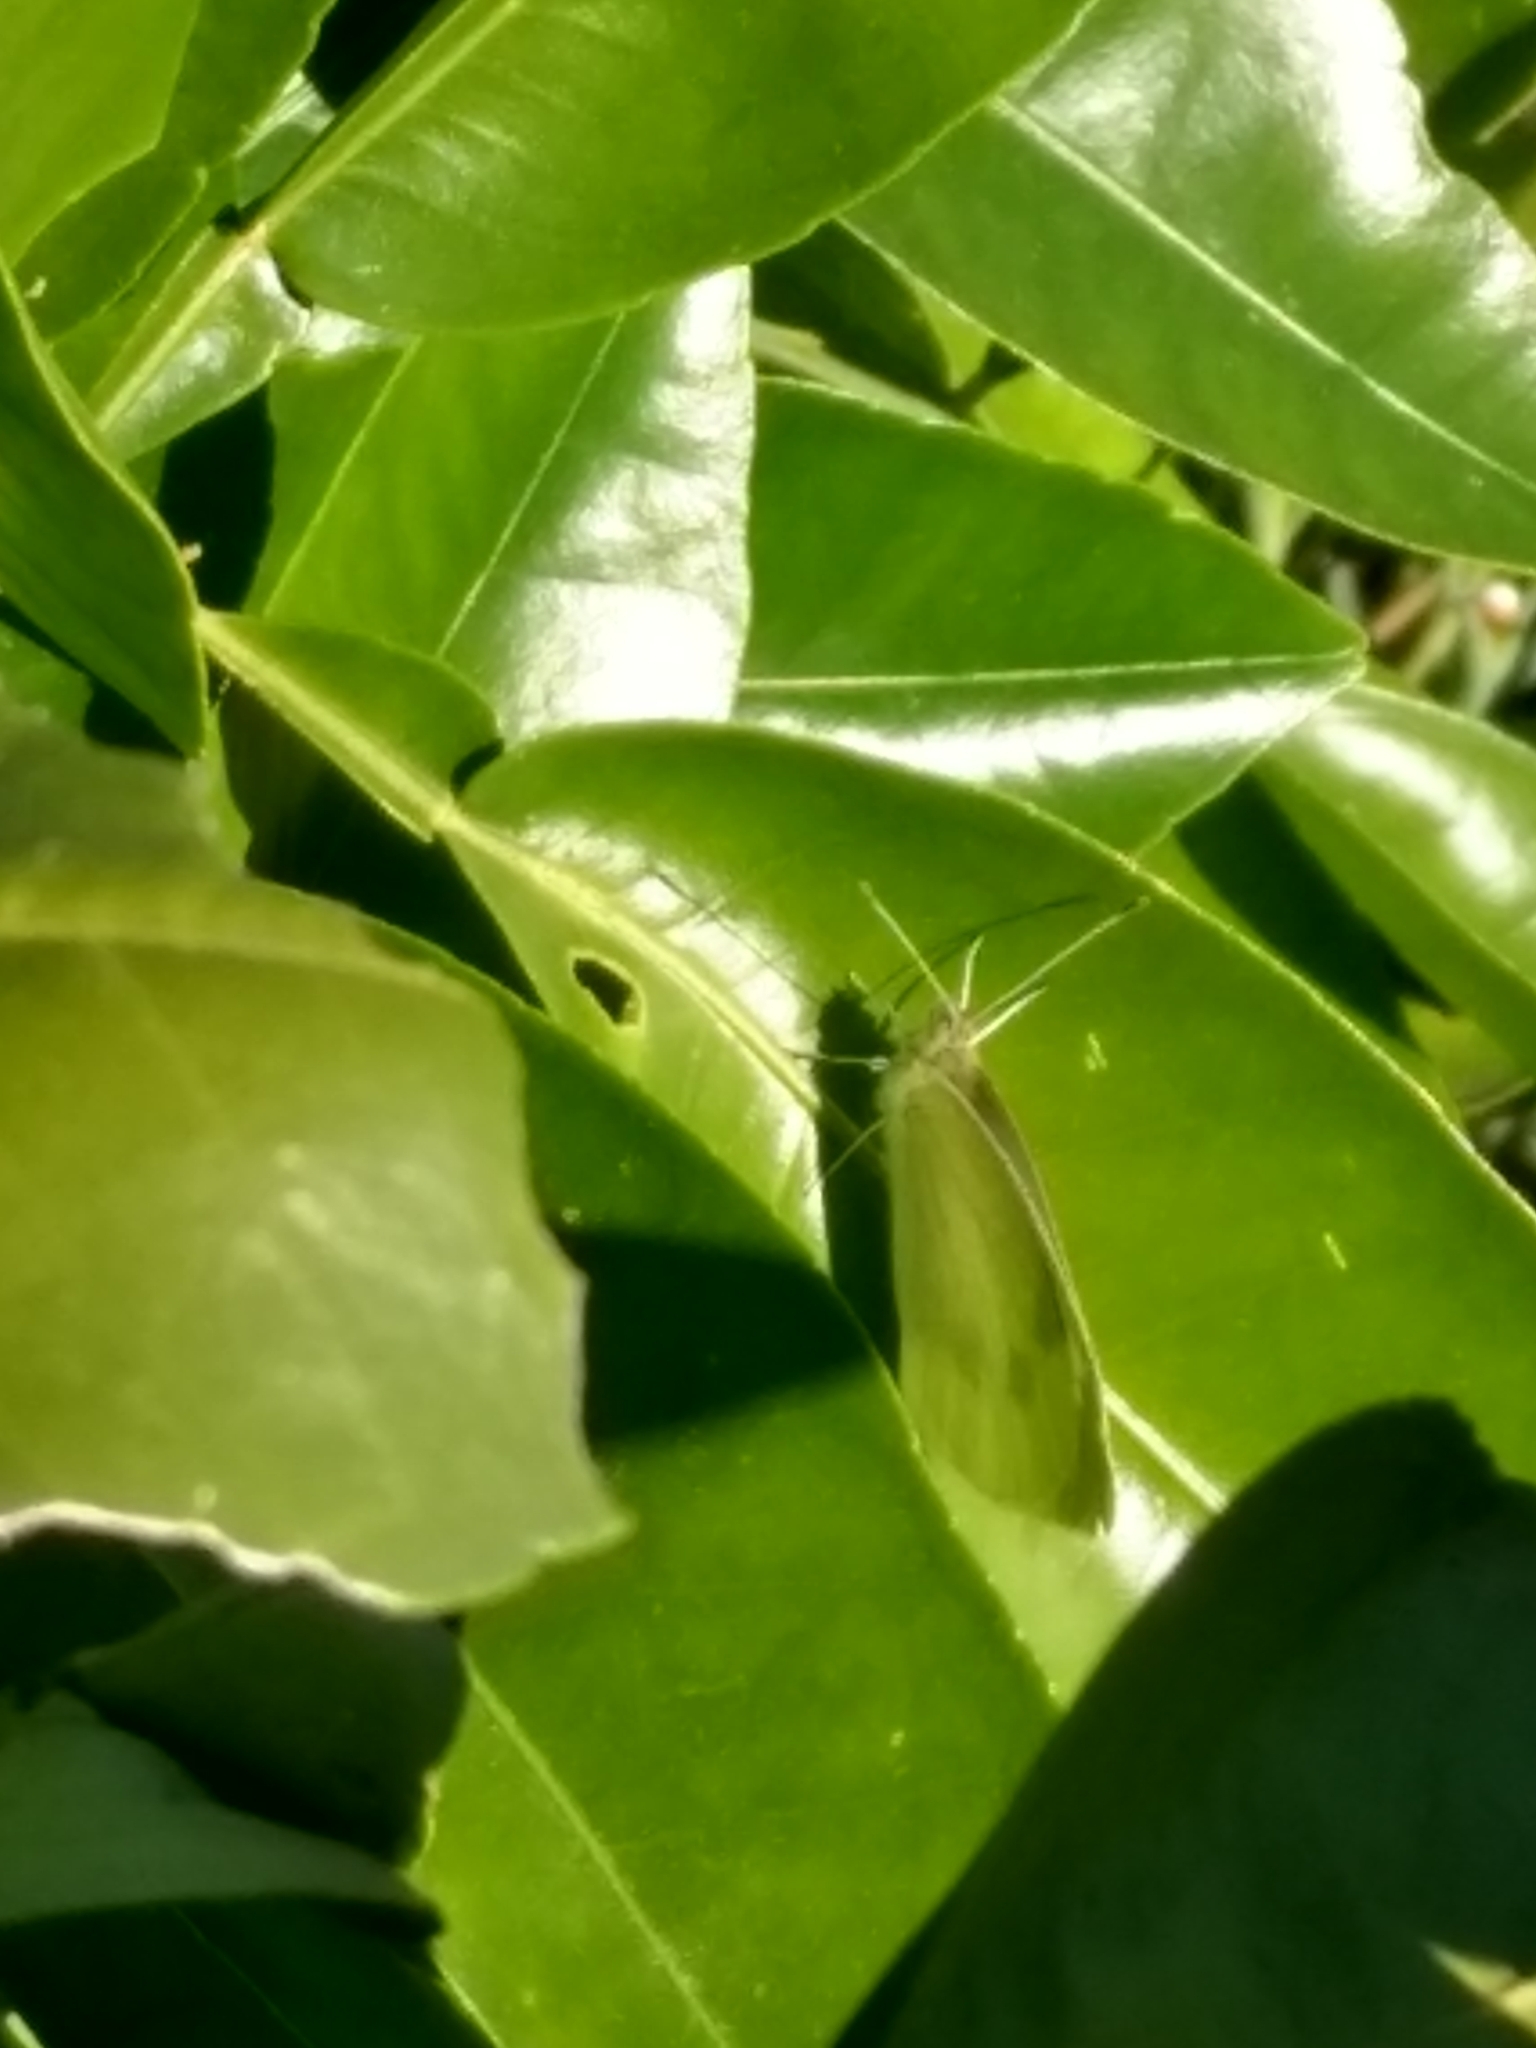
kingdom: Animalia
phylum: Arthropoda
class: Insecta
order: Lepidoptera
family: Pieridae
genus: Pieris
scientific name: Pieris rapae
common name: Small white
